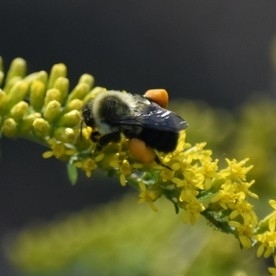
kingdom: Animalia
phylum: Arthropoda
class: Insecta
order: Hymenoptera
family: Apidae
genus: Bombus
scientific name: Bombus impatiens
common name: Common eastern bumble bee
